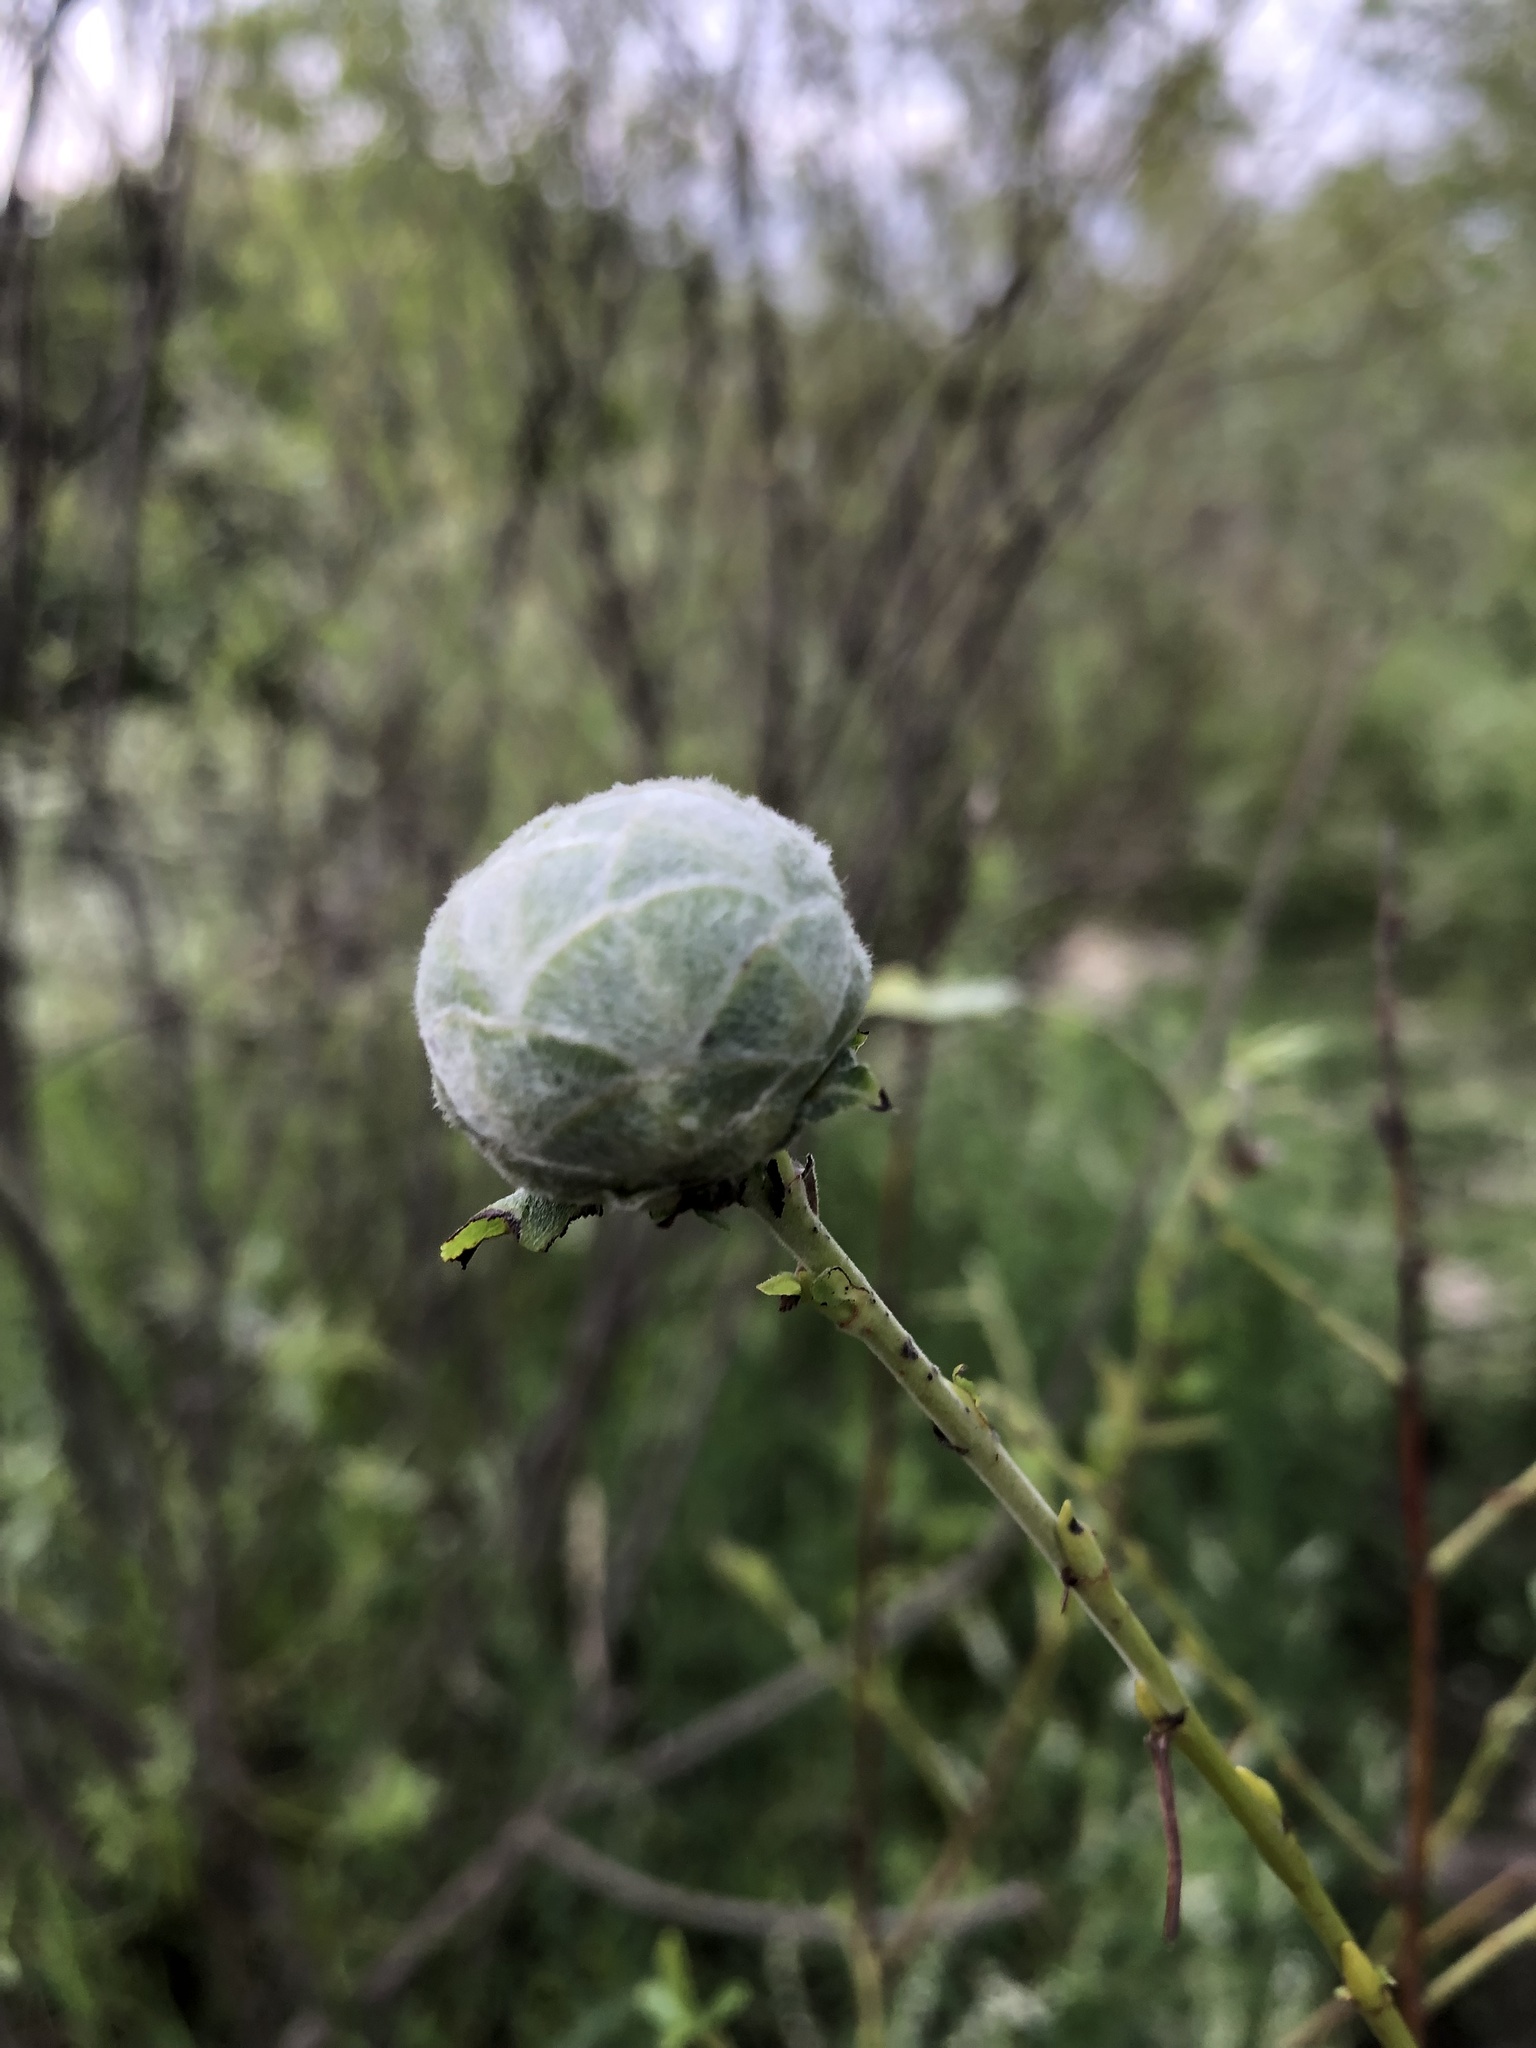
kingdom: Animalia
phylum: Arthropoda
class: Insecta
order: Diptera
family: Cecidomyiidae
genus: Rabdophaga
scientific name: Rabdophaga strobiloides
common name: Willow pinecone gall midge
